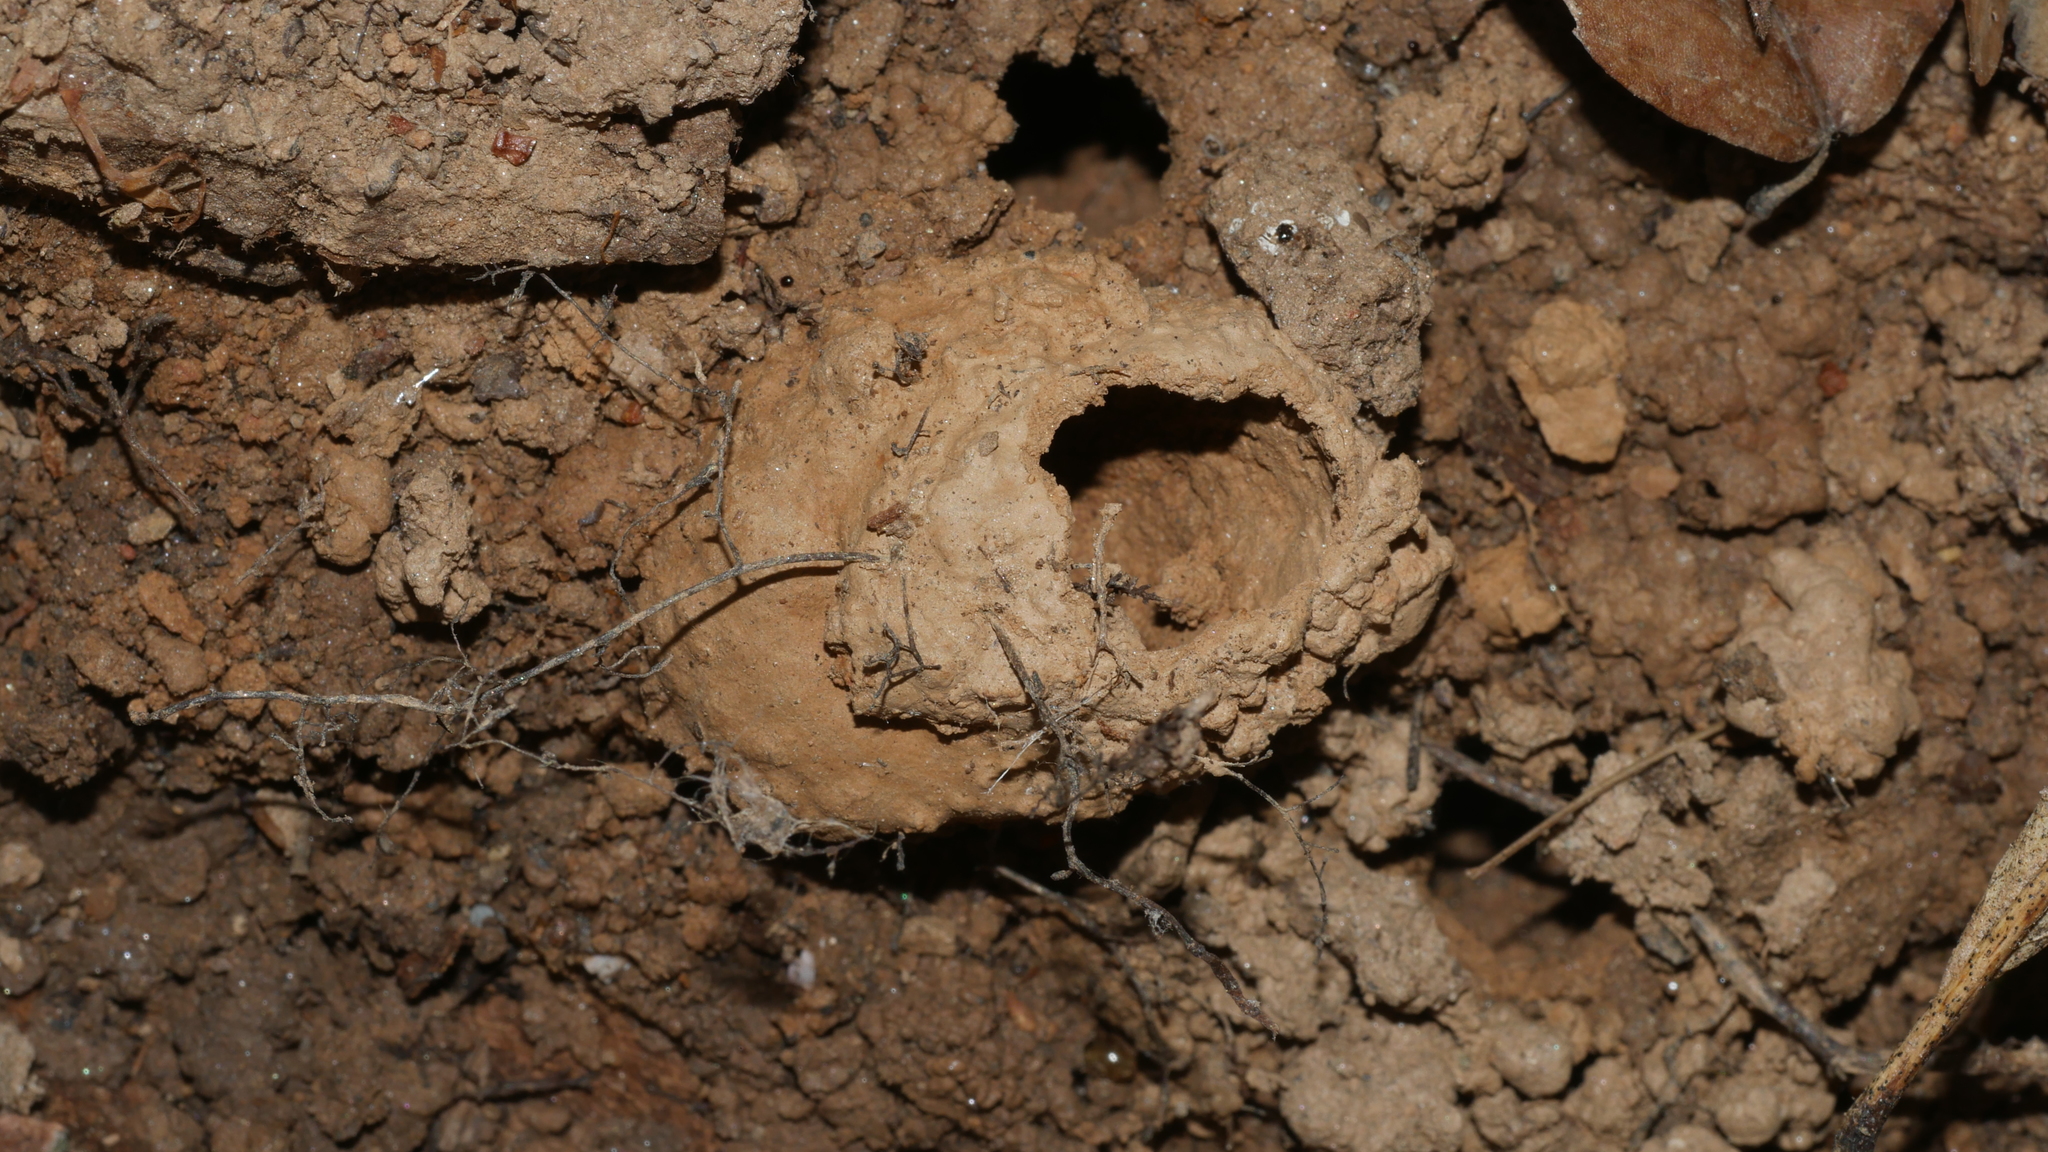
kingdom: Animalia
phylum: Arthropoda
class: Insecta
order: Hemiptera
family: Cicadidae
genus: Magicicada
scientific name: Magicicada
